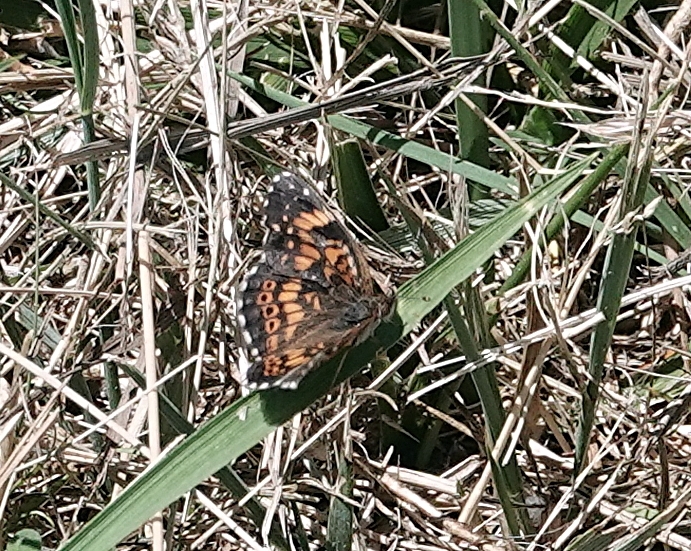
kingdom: Animalia
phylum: Arthropoda
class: Insecta
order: Lepidoptera
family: Nymphalidae
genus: Chlosyne
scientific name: Chlosyne gorgone
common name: Gorgone checkerspot
